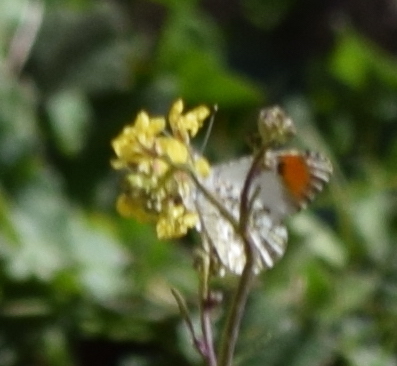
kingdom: Animalia
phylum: Arthropoda
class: Insecta
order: Lepidoptera
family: Pieridae
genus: Anthocharis
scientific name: Anthocharis sara
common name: Sara's orangetip
